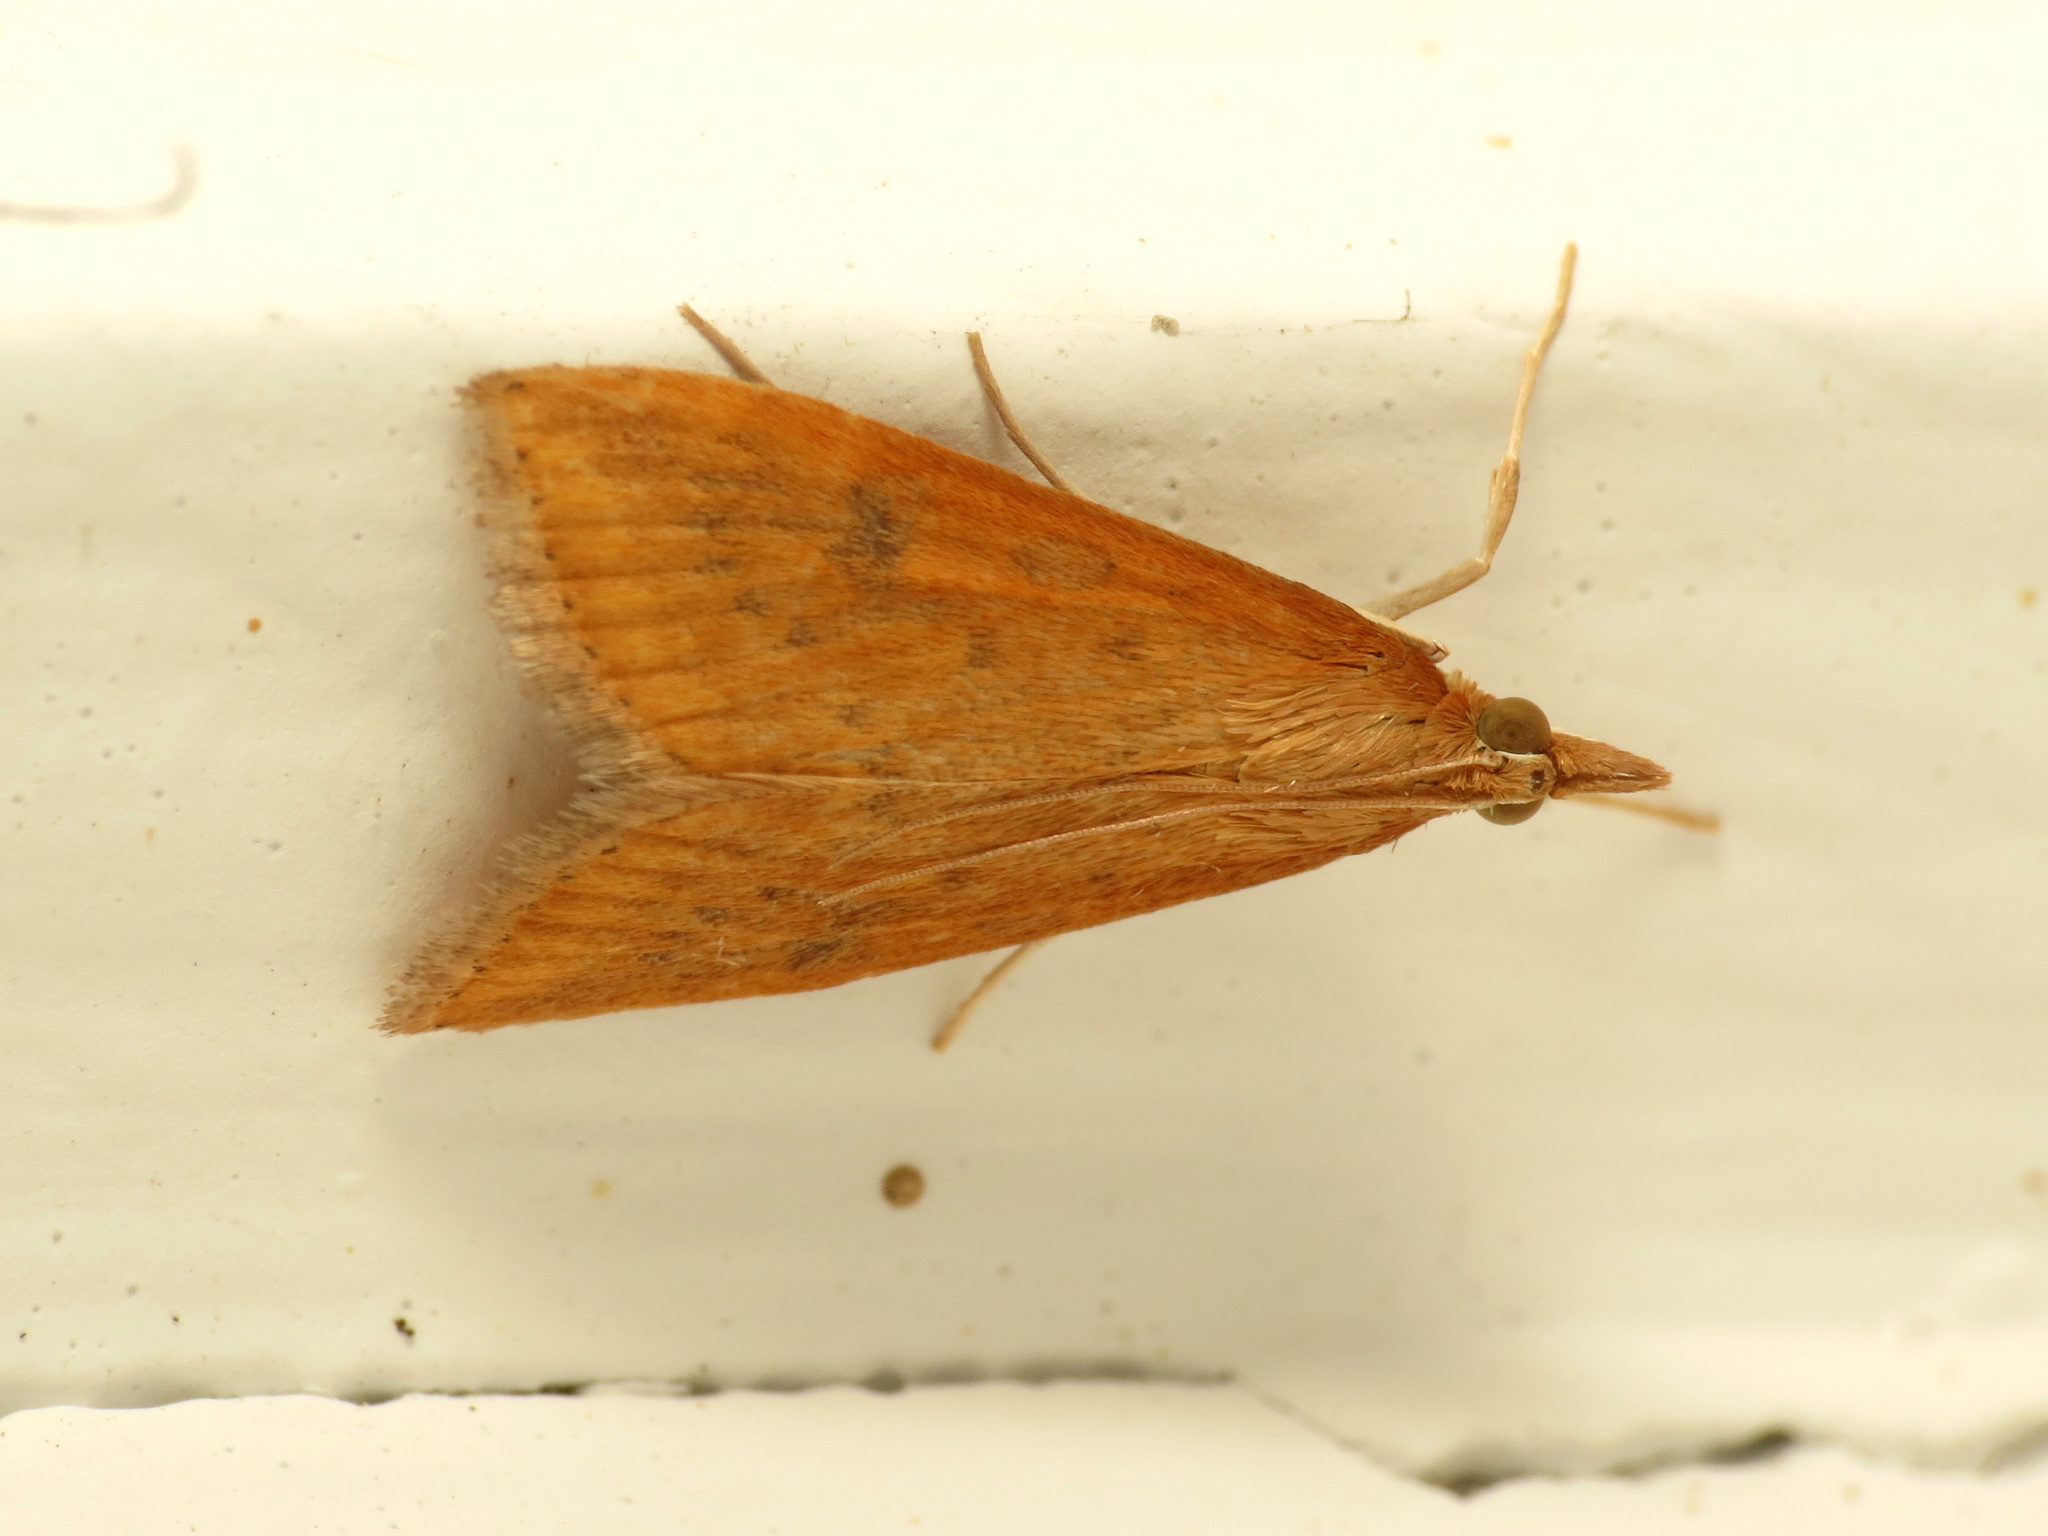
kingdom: Animalia
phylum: Arthropoda
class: Insecta
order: Lepidoptera
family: Crambidae
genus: Udea
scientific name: Udea ferrugalis
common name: Rusty dot
